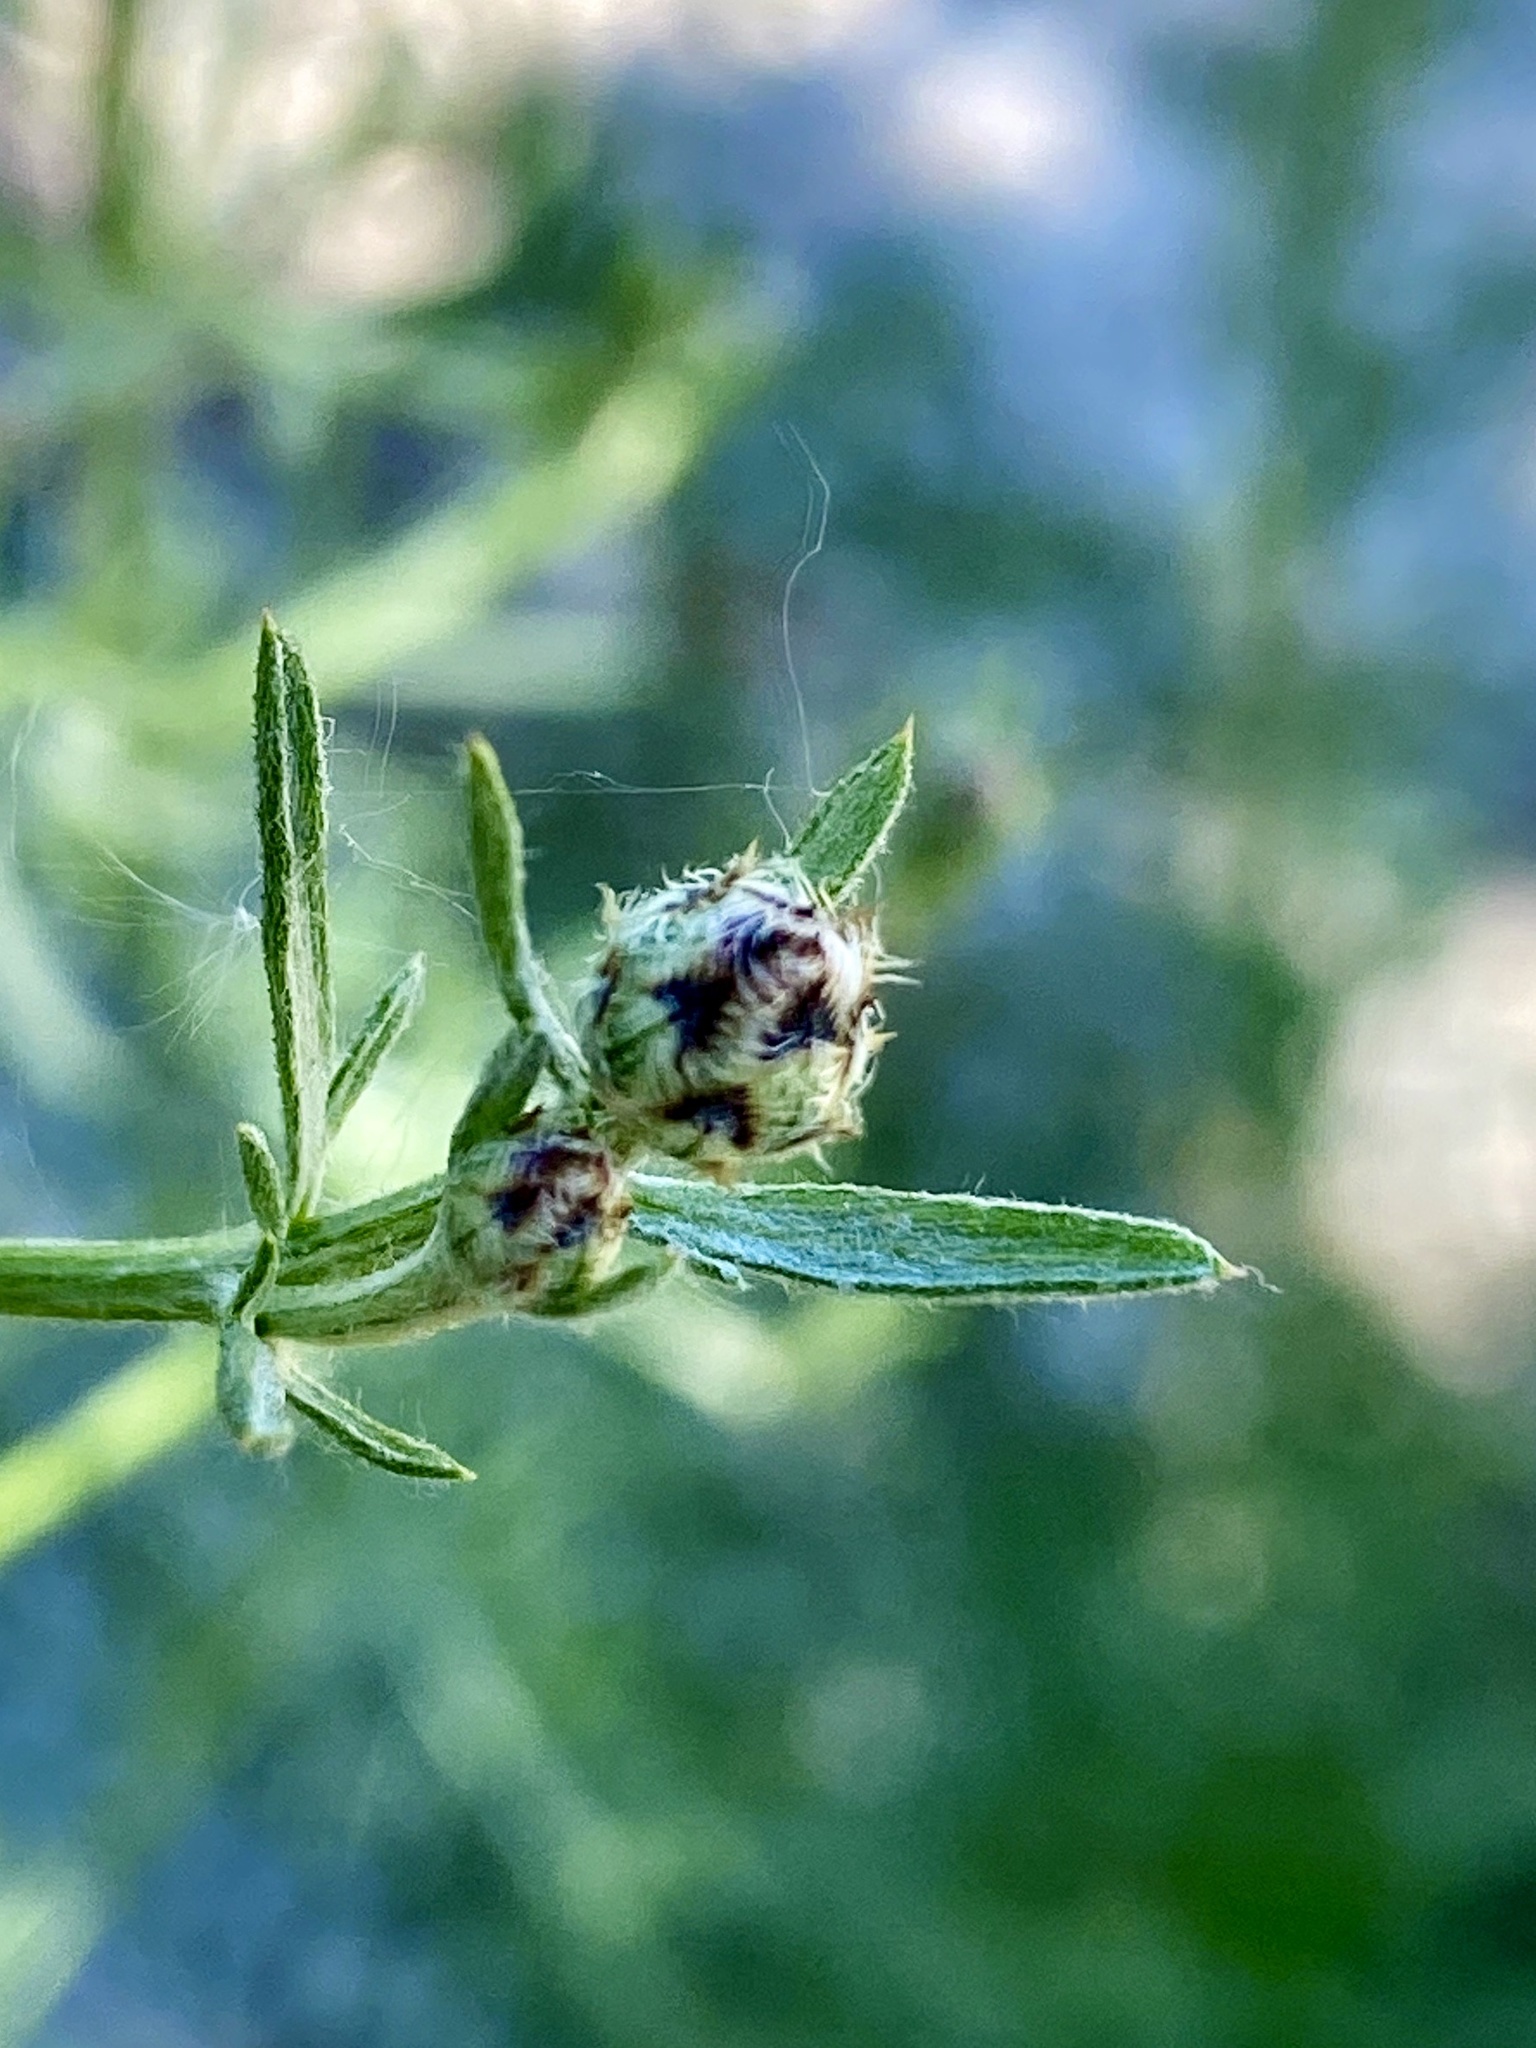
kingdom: Plantae
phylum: Tracheophyta
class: Magnoliopsida
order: Asterales
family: Asteraceae
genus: Centaurea
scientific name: Centaurea stoebe
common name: Spotted knapweed
